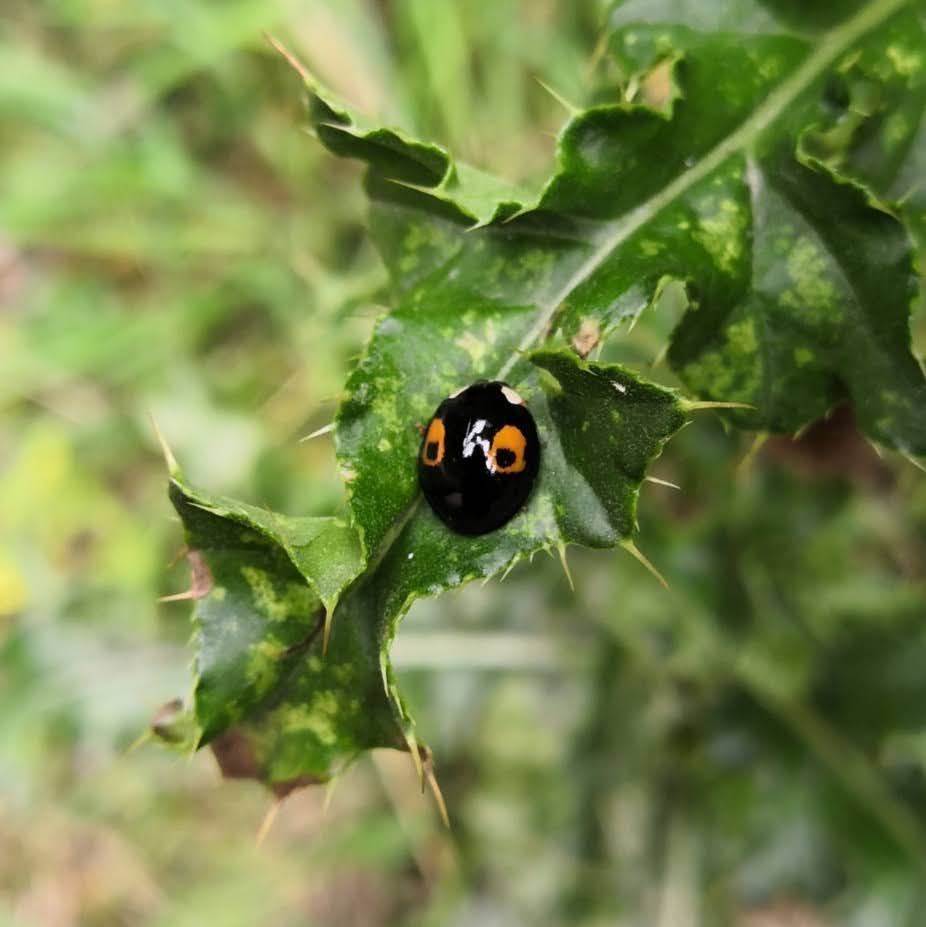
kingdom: Animalia
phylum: Arthropoda
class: Insecta
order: Coleoptera
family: Coccinellidae
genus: Harmonia
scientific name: Harmonia axyridis
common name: Harlequin ladybird
